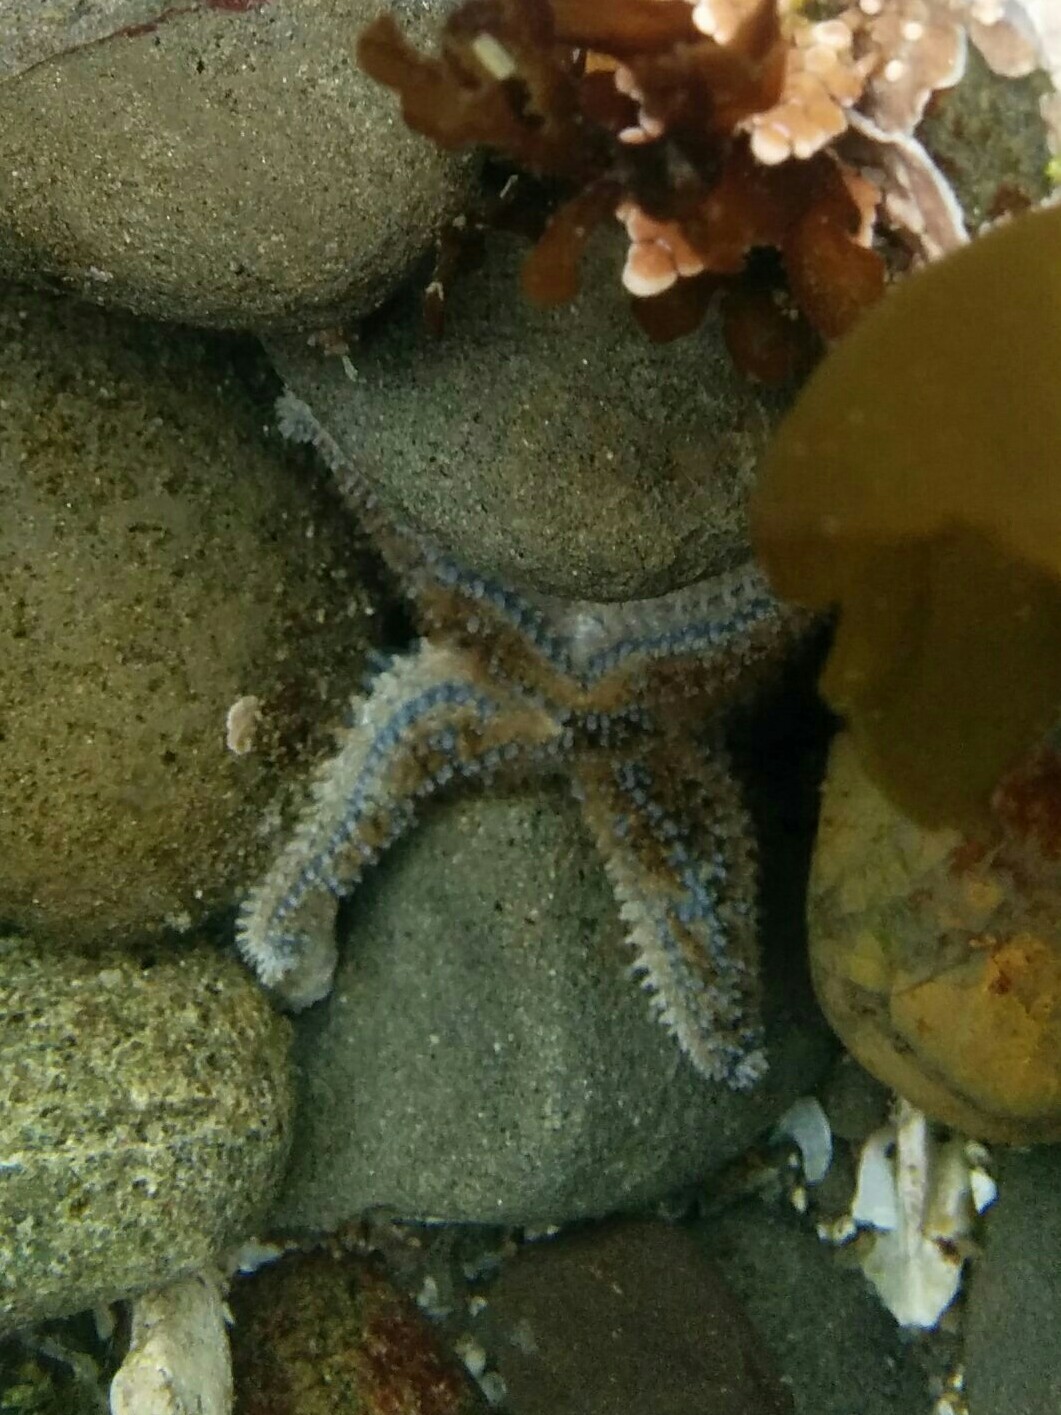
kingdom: Animalia
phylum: Echinodermata
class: Asteroidea
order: Forcipulatida
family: Asteriidae
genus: Pisaster
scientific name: Pisaster giganteus
